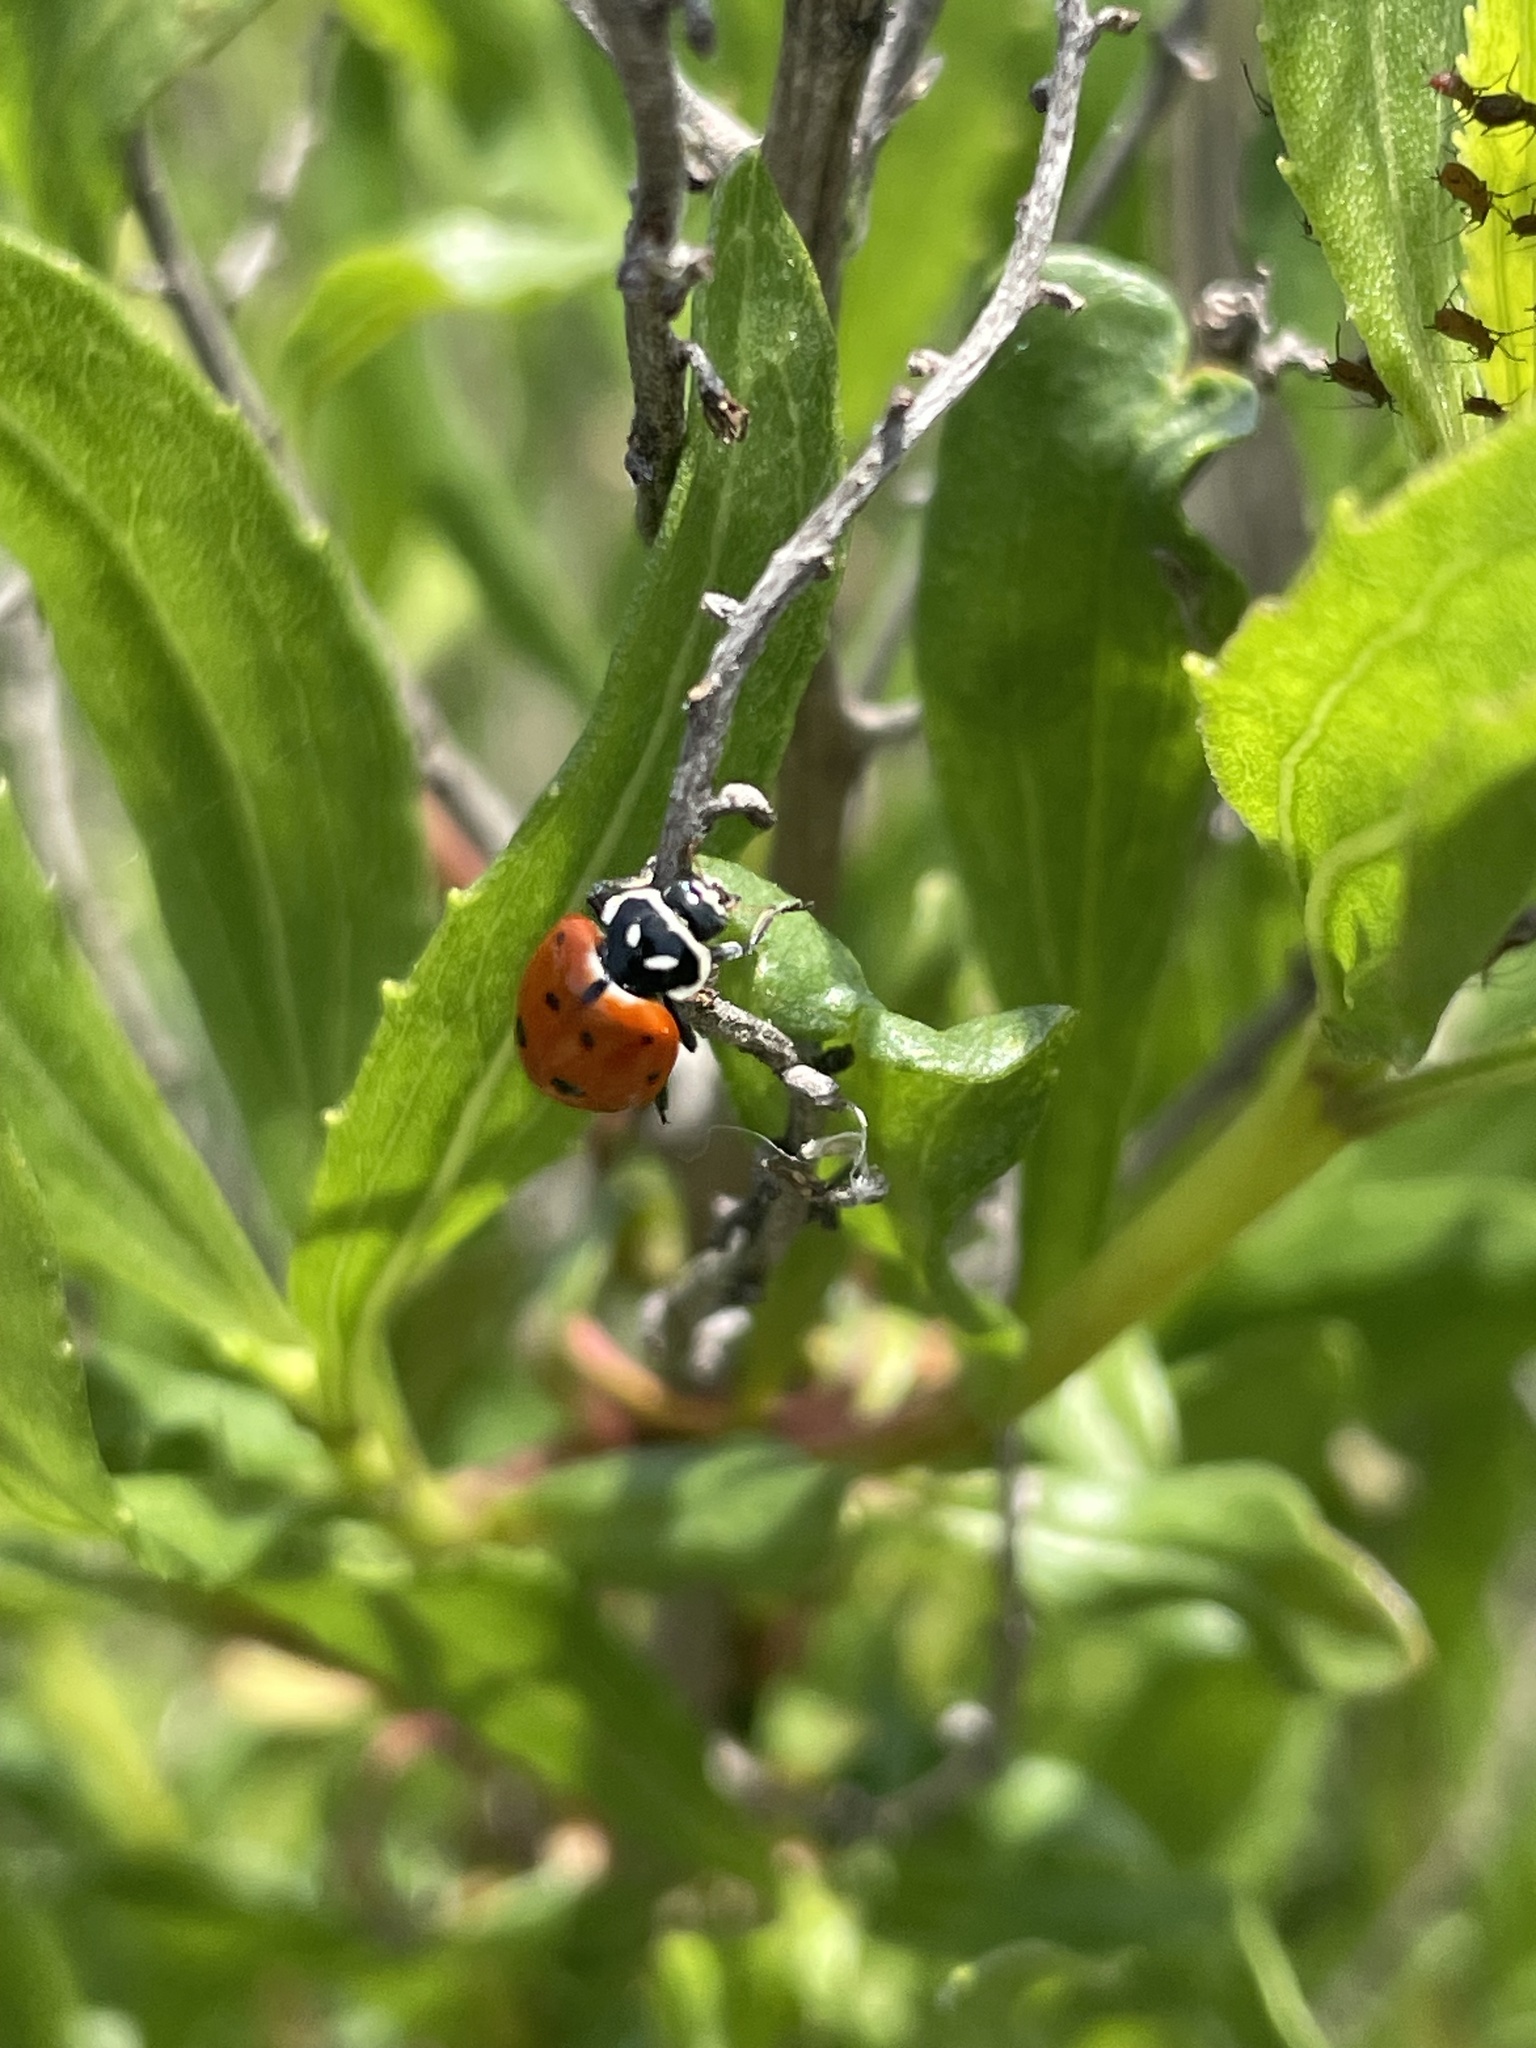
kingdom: Animalia
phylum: Arthropoda
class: Insecta
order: Coleoptera
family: Coccinellidae
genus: Hippodamia
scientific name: Hippodamia convergens
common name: Convergent lady beetle
